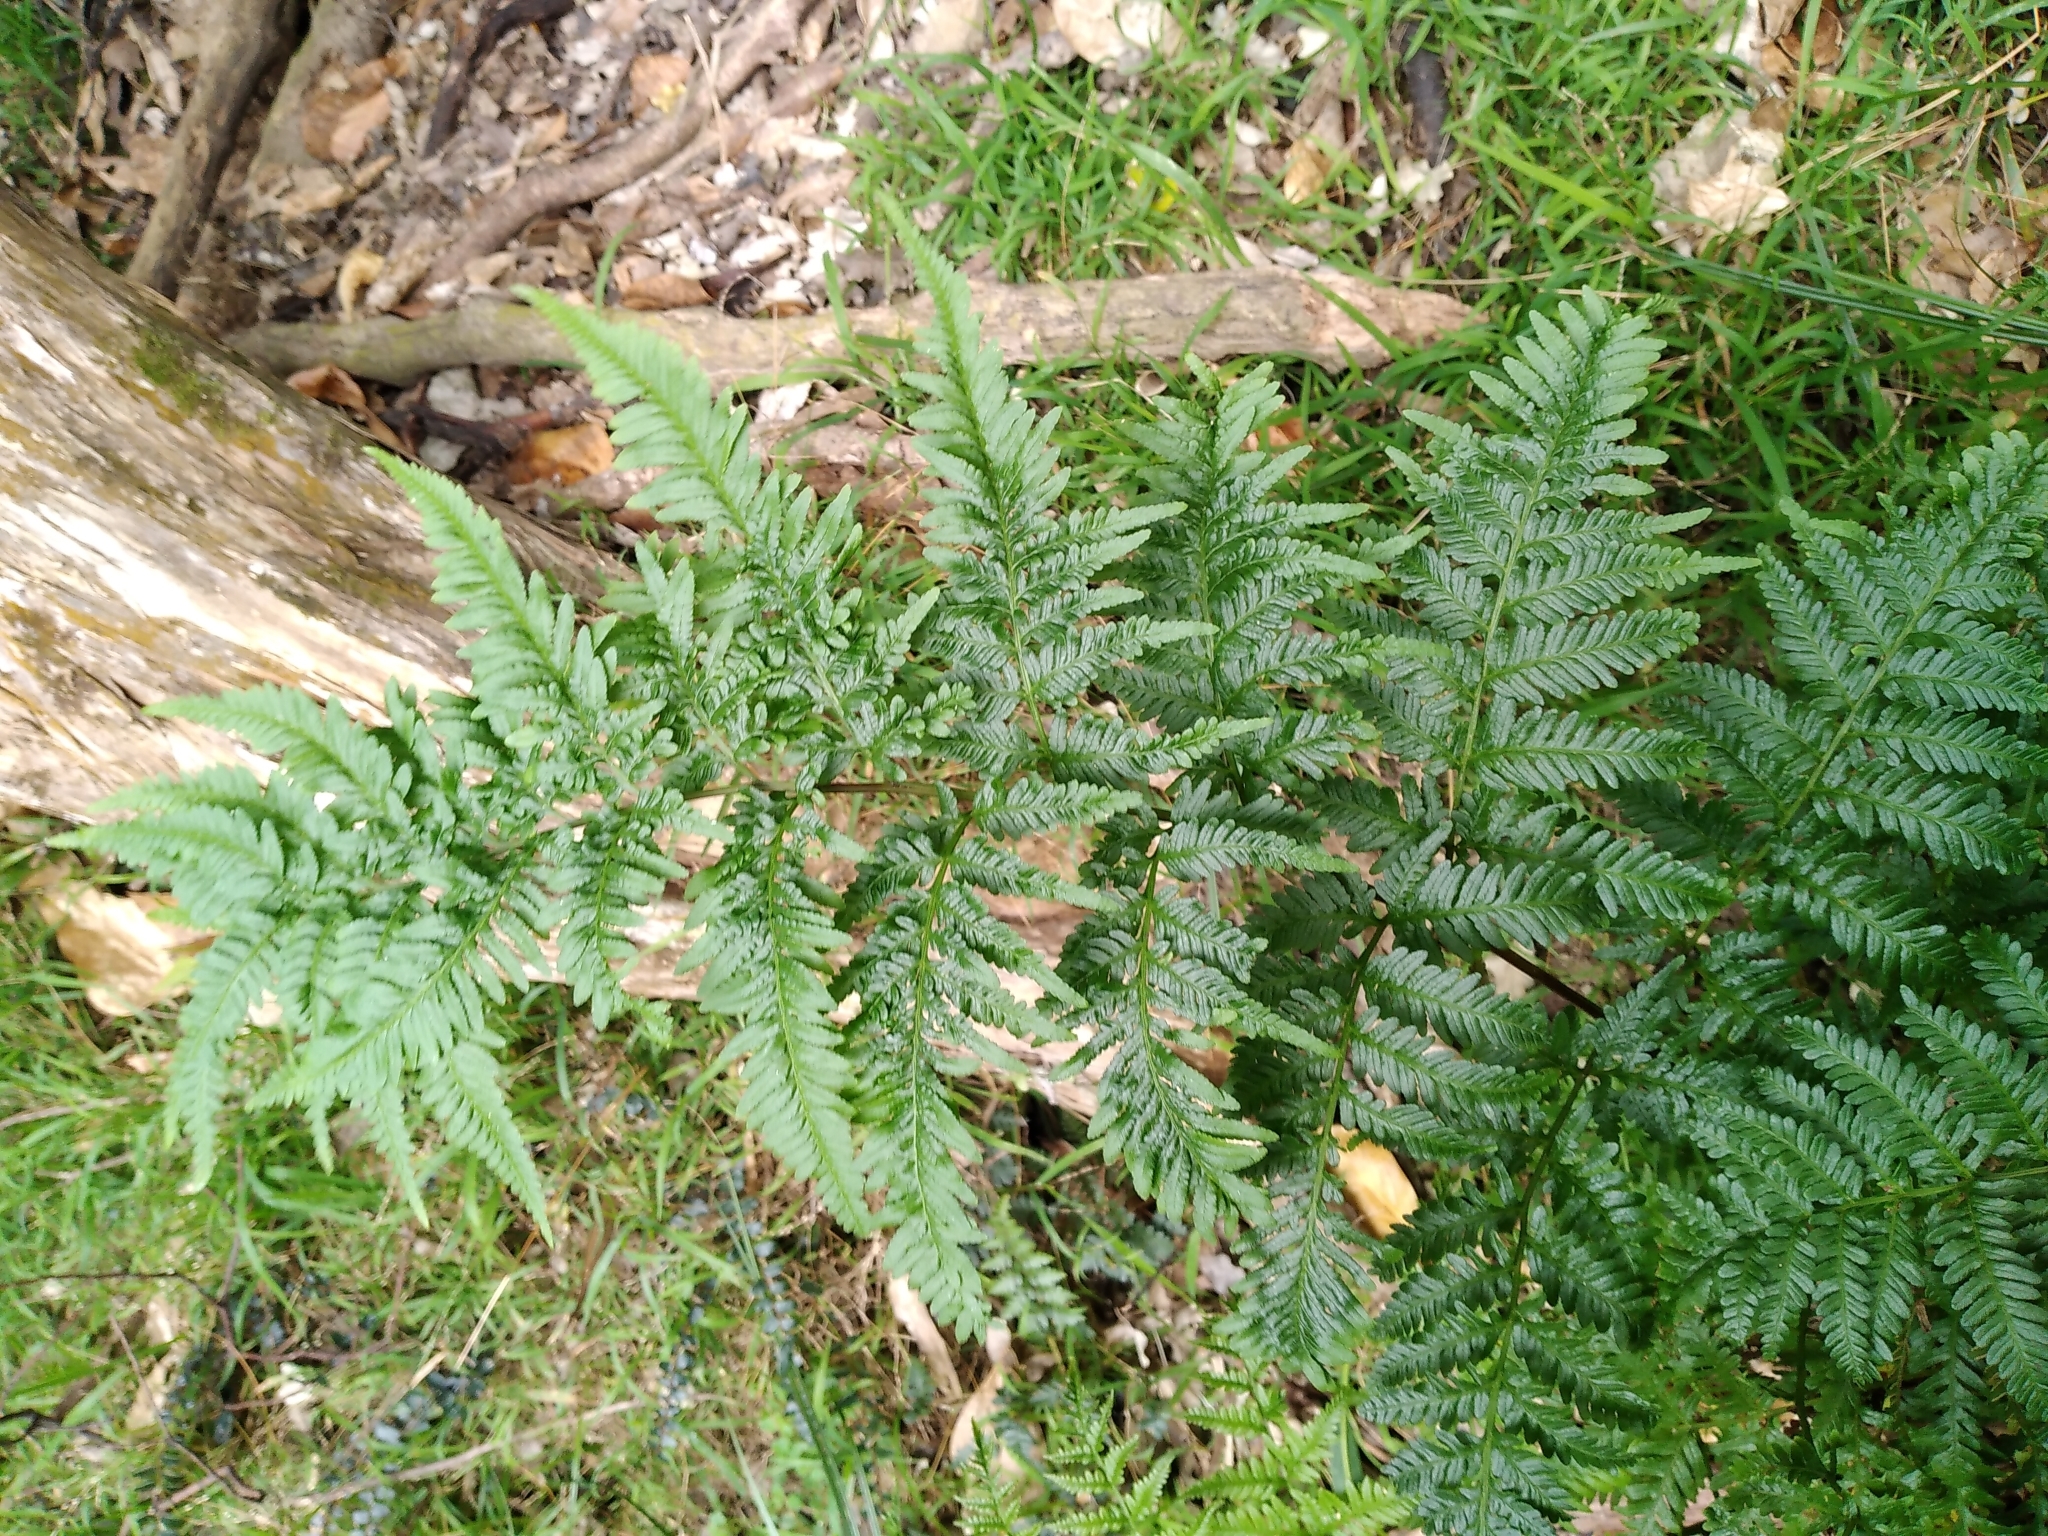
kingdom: Plantae
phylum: Tracheophyta
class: Polypodiopsida
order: Polypodiales
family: Pteridaceae
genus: Pteris
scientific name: Pteris tremula
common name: Australian brake
